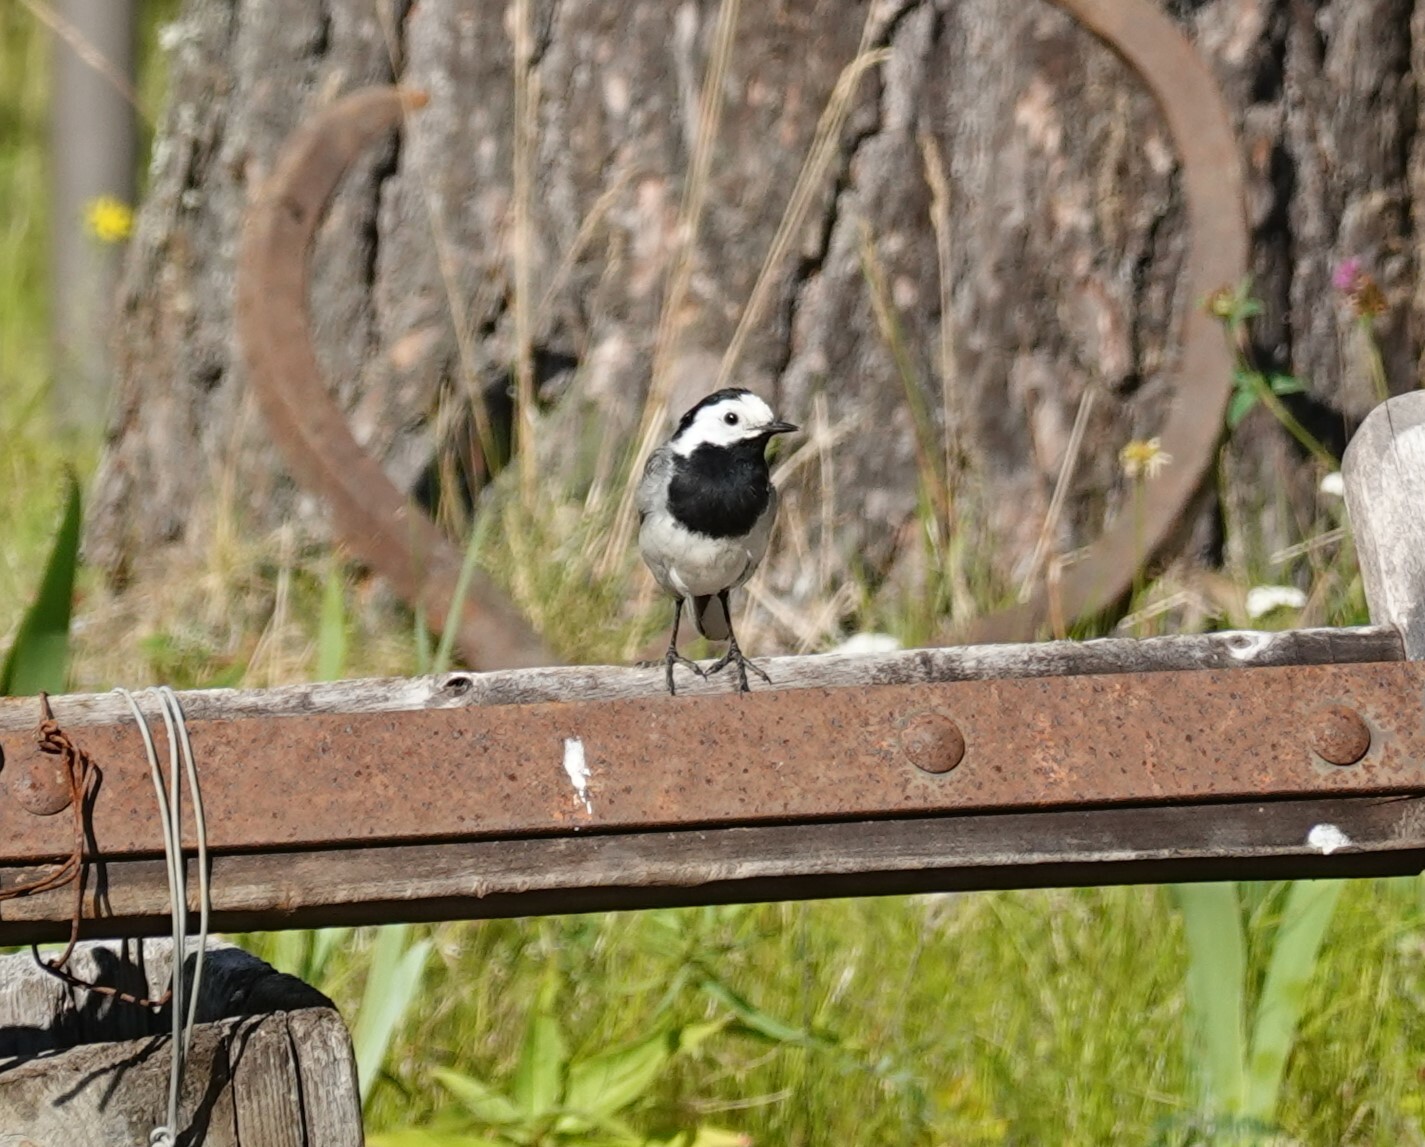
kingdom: Animalia
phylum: Chordata
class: Aves
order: Passeriformes
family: Motacillidae
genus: Motacilla
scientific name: Motacilla alba
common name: White wagtail
